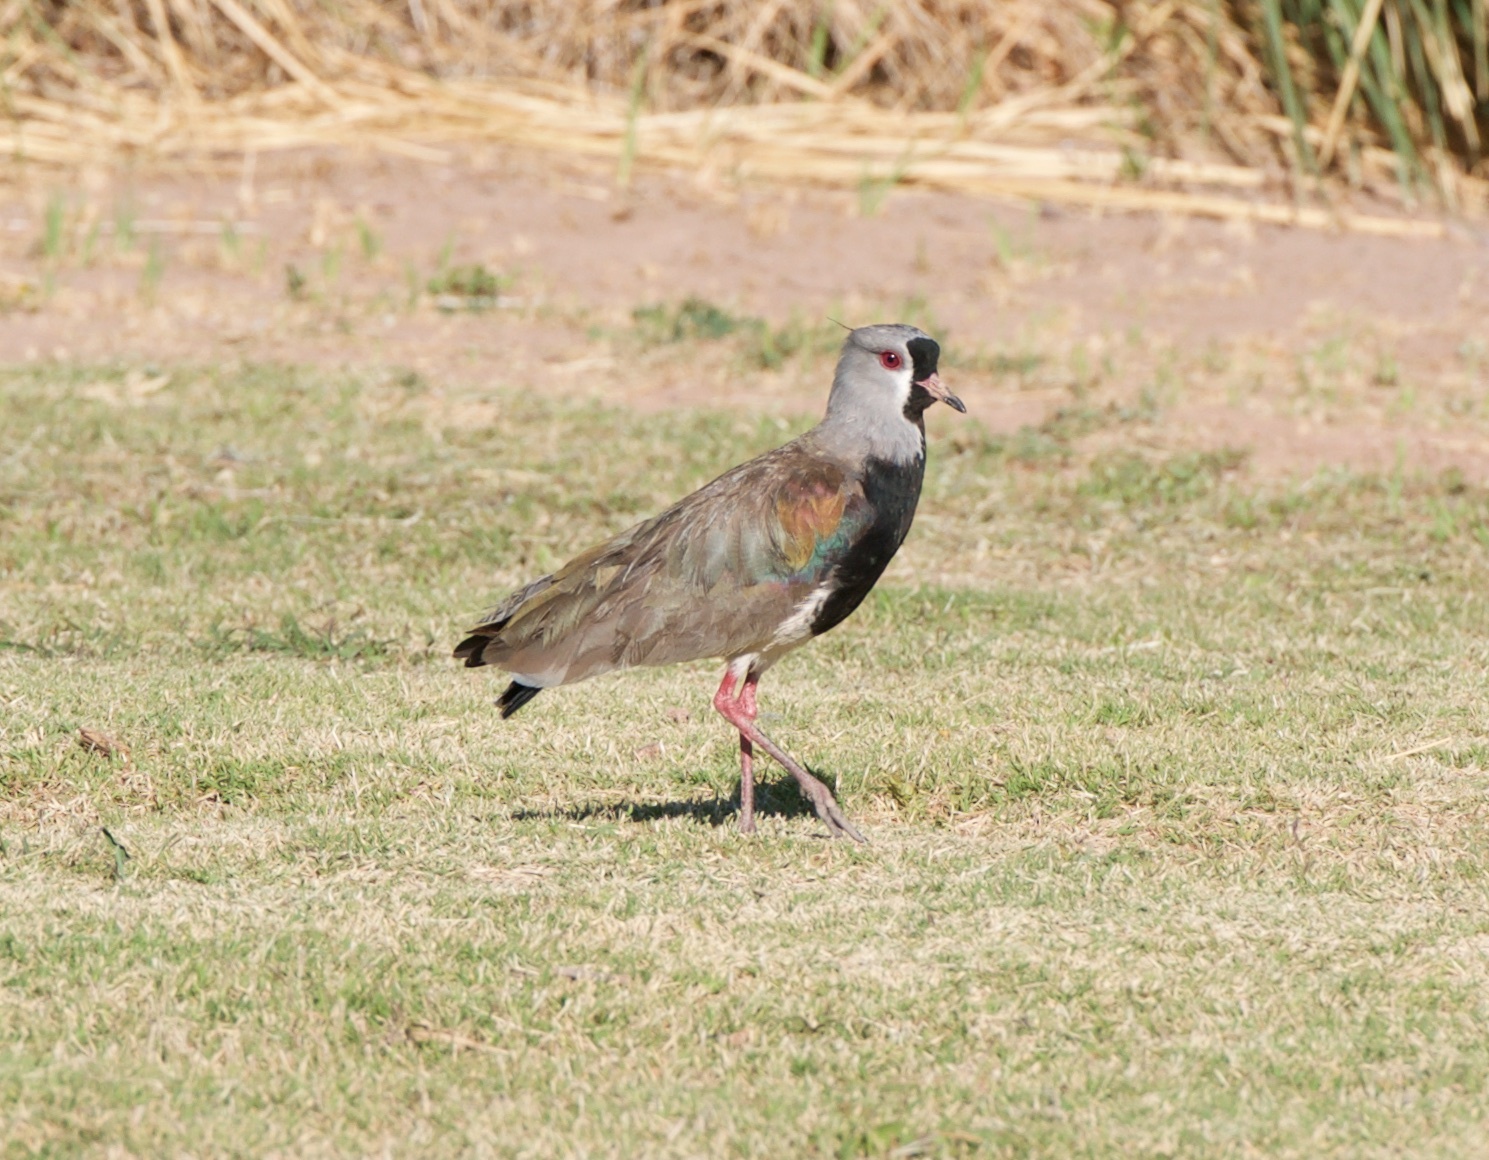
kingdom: Animalia
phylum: Chordata
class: Aves
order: Charadriiformes
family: Charadriidae
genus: Vanellus
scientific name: Vanellus chilensis
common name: Southern lapwing
